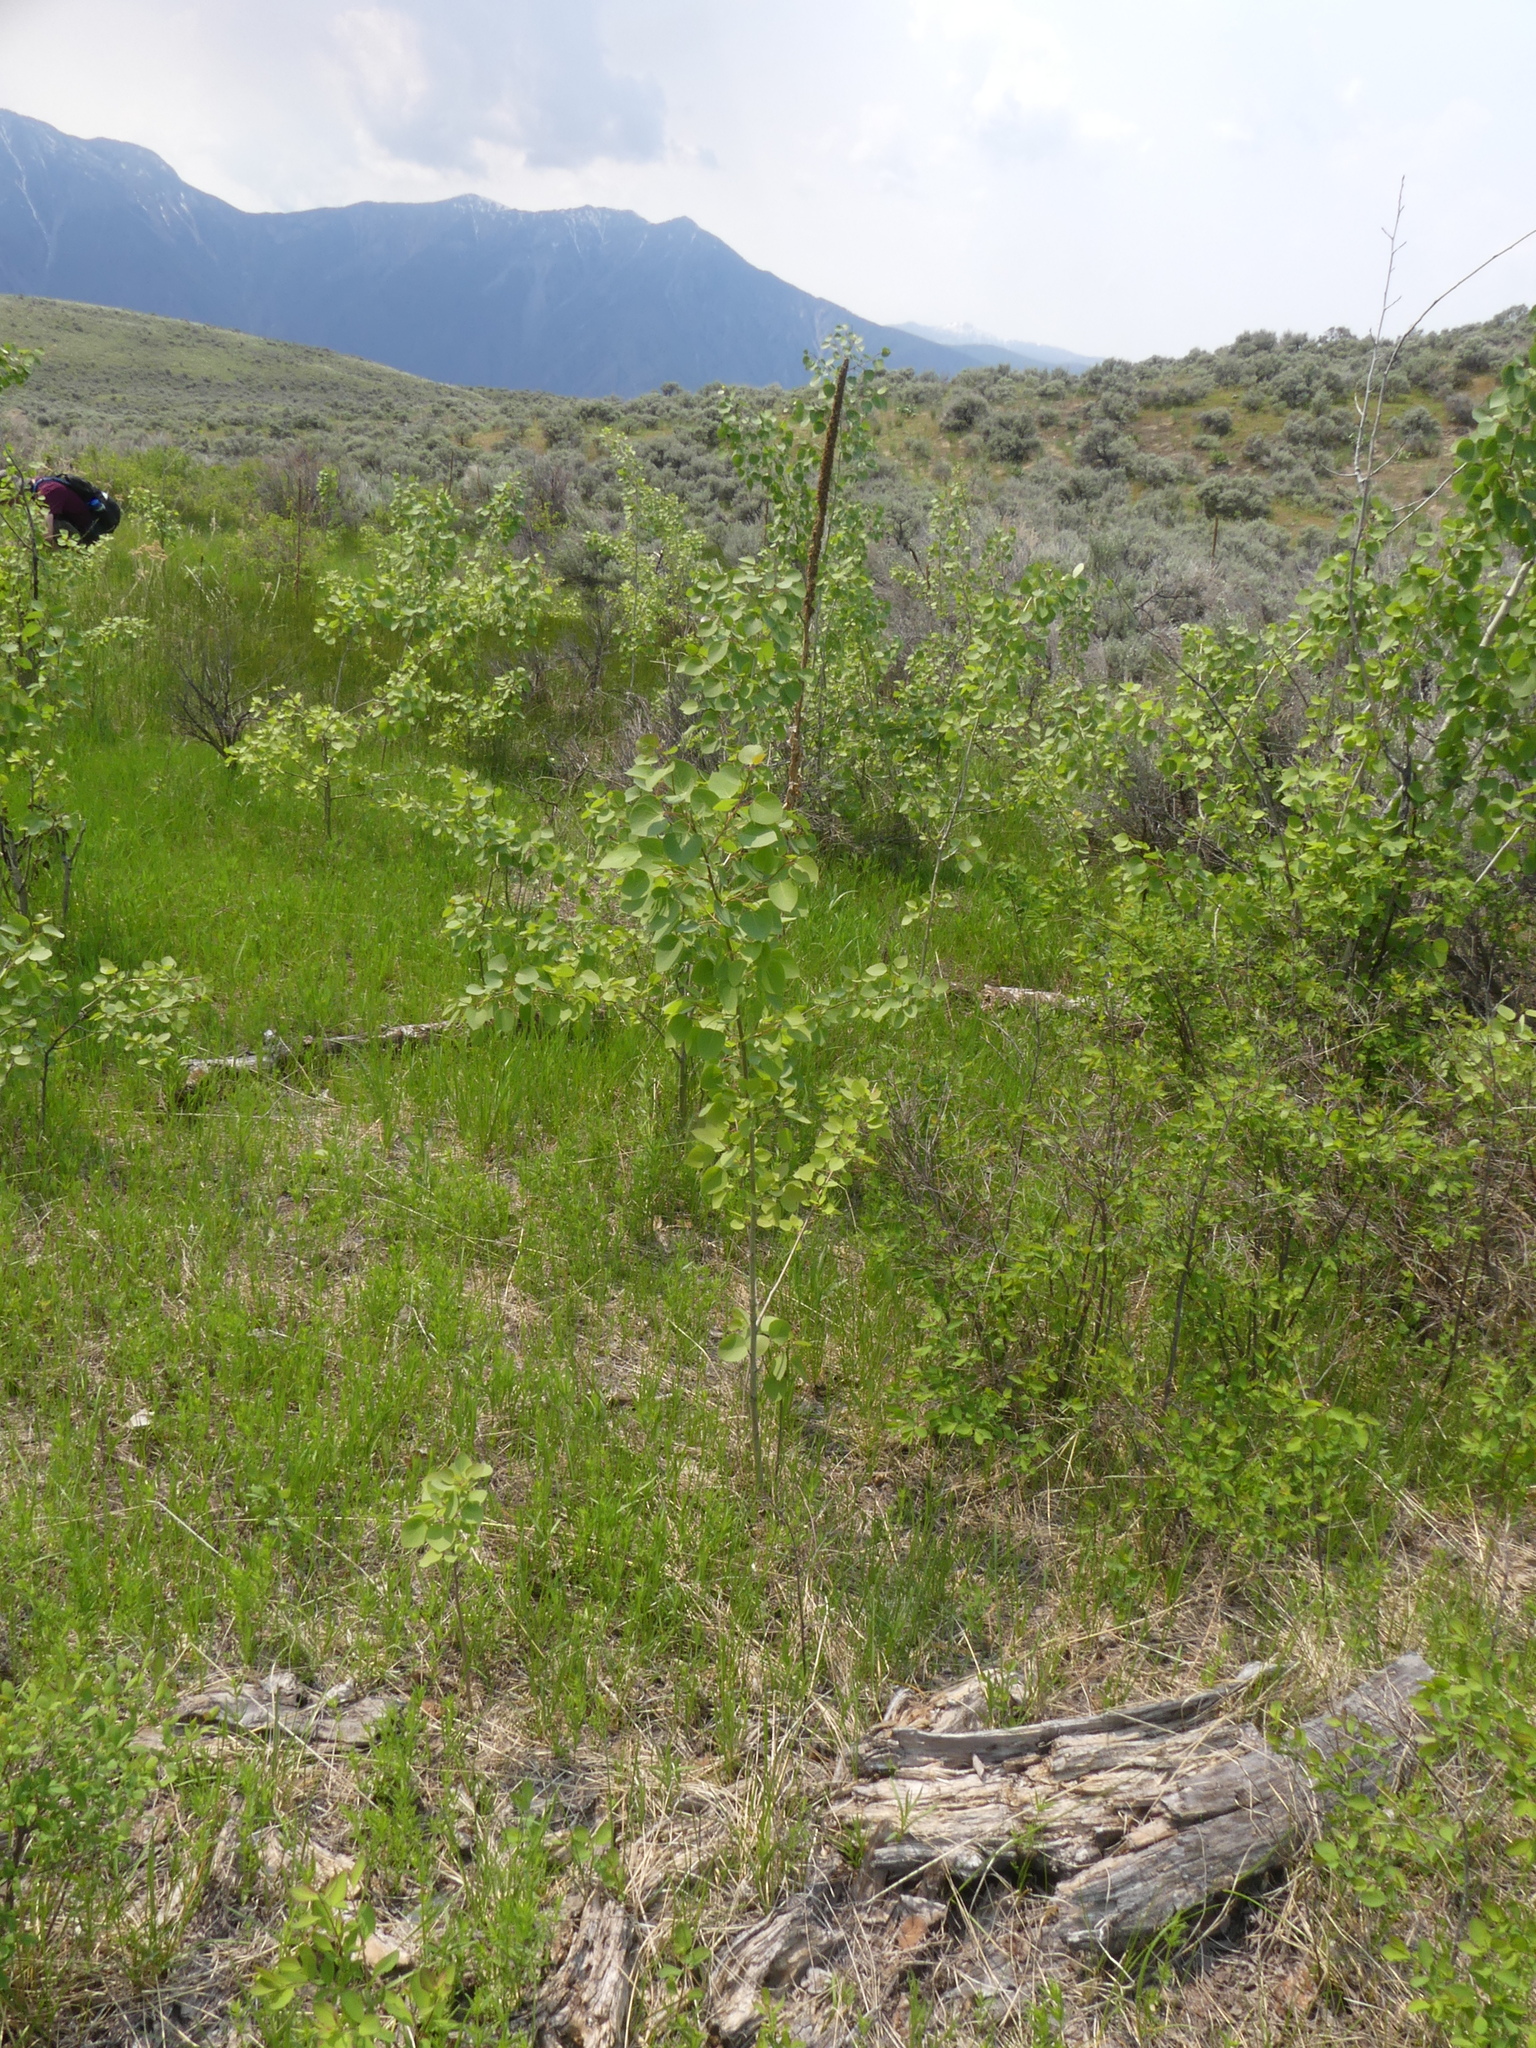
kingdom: Plantae
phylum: Tracheophyta
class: Magnoliopsida
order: Malpighiales
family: Salicaceae
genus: Populus
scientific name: Populus tremuloides
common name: Quaking aspen
